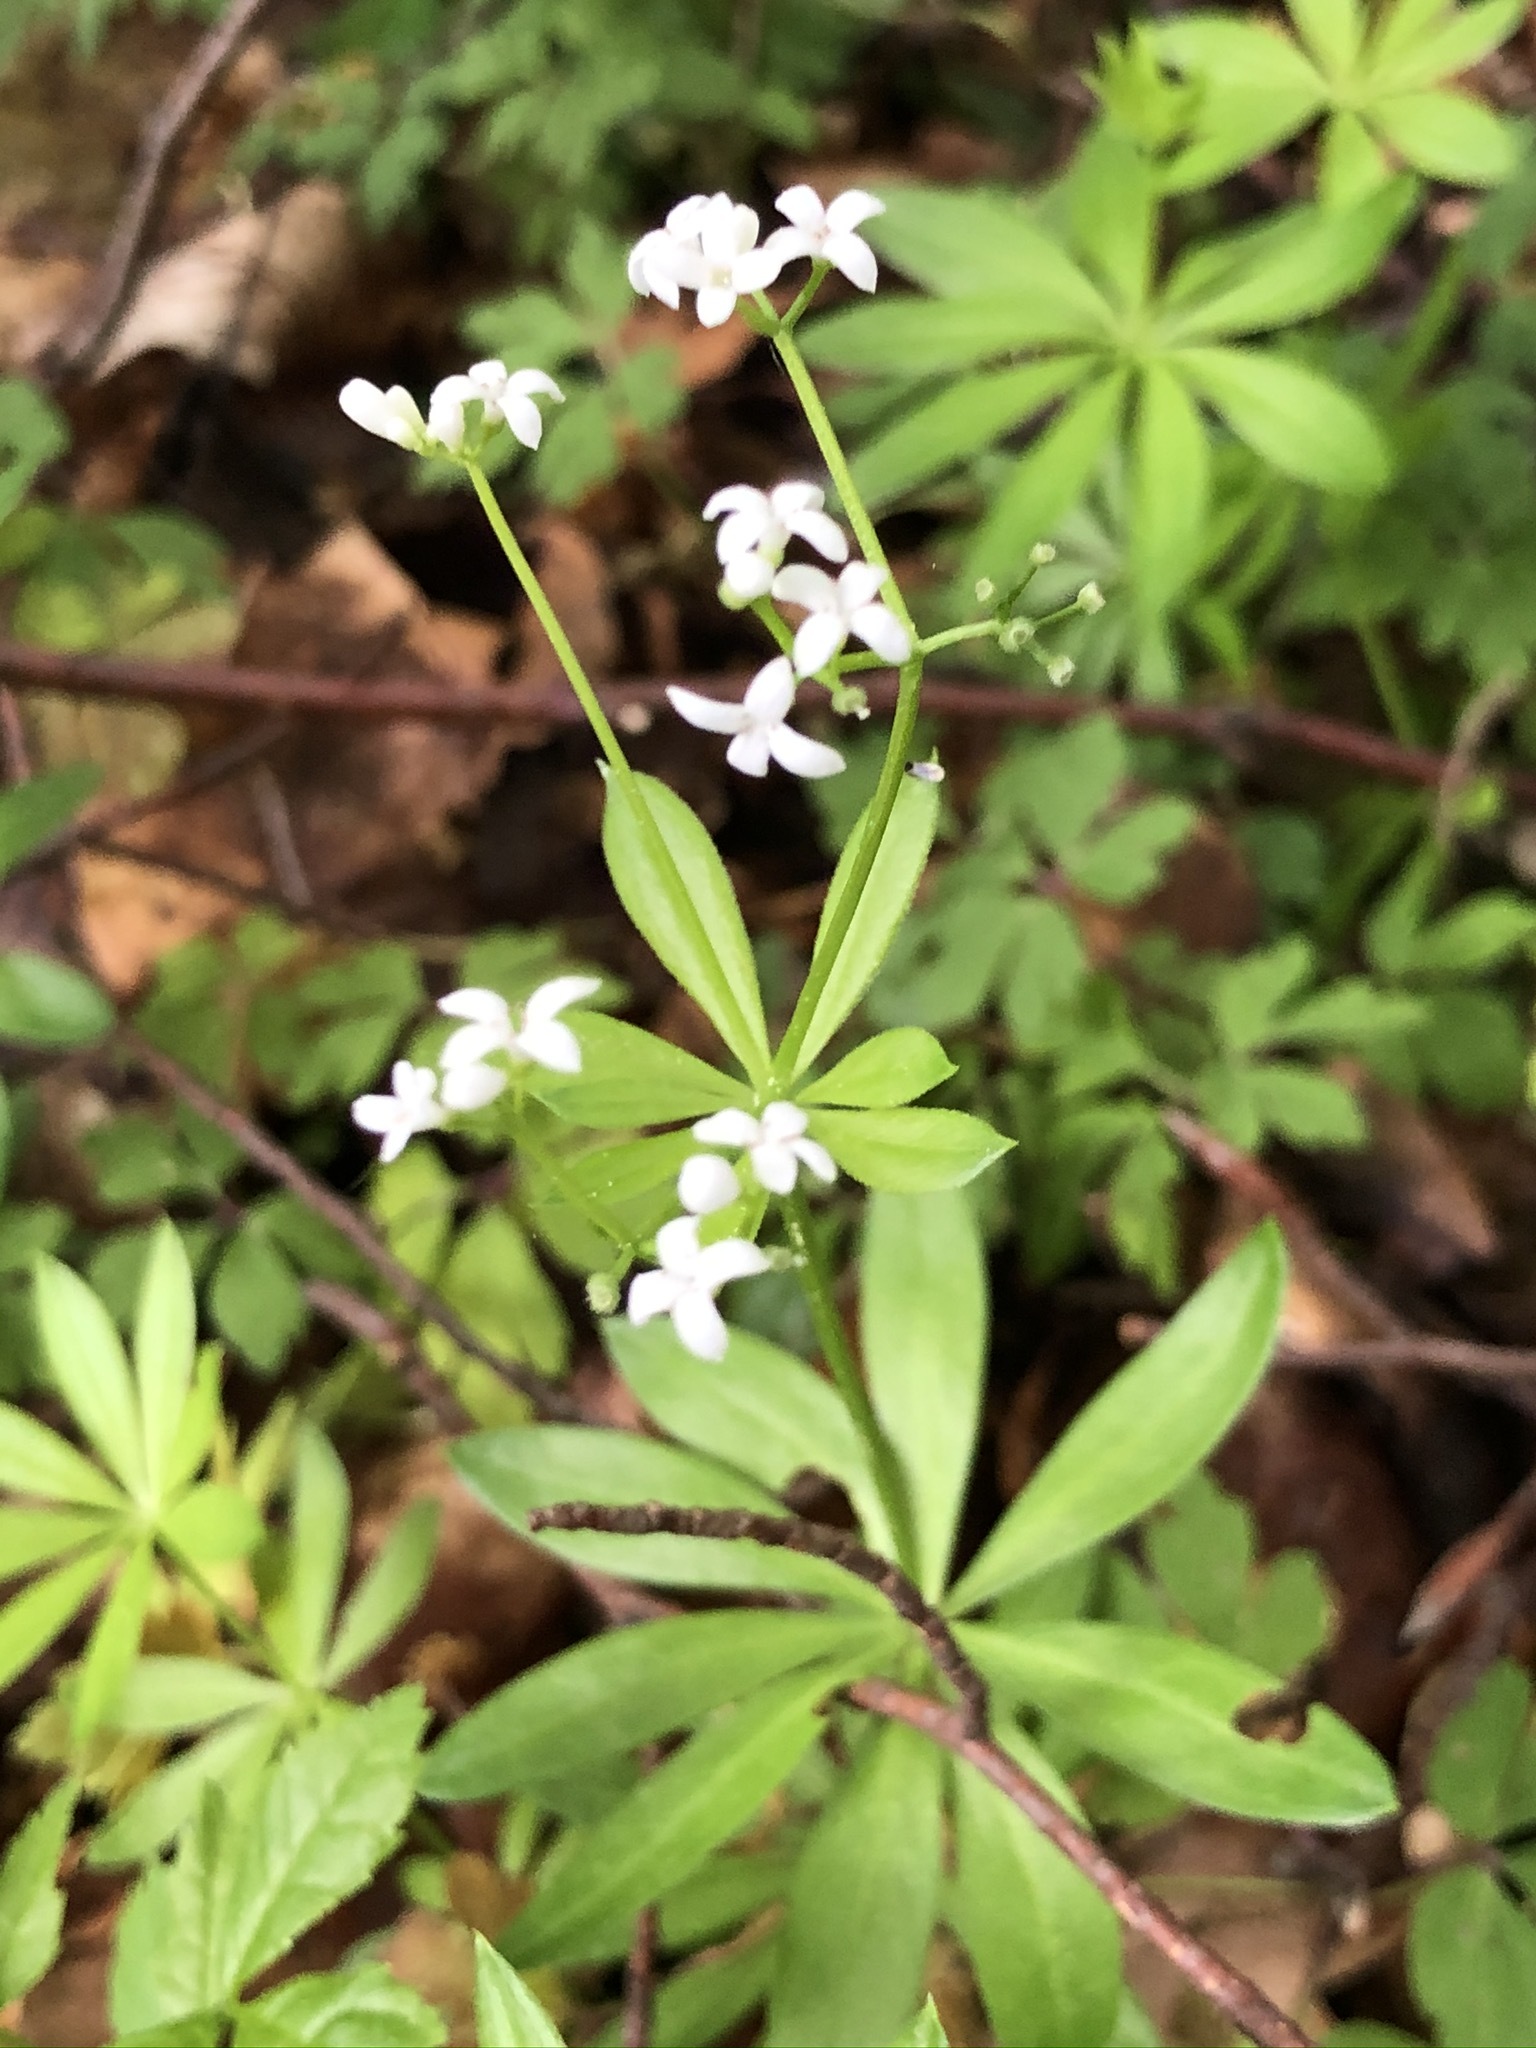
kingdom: Plantae
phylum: Tracheophyta
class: Magnoliopsida
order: Gentianales
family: Rubiaceae
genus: Galium
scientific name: Galium odoratum
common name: Sweet woodruff
